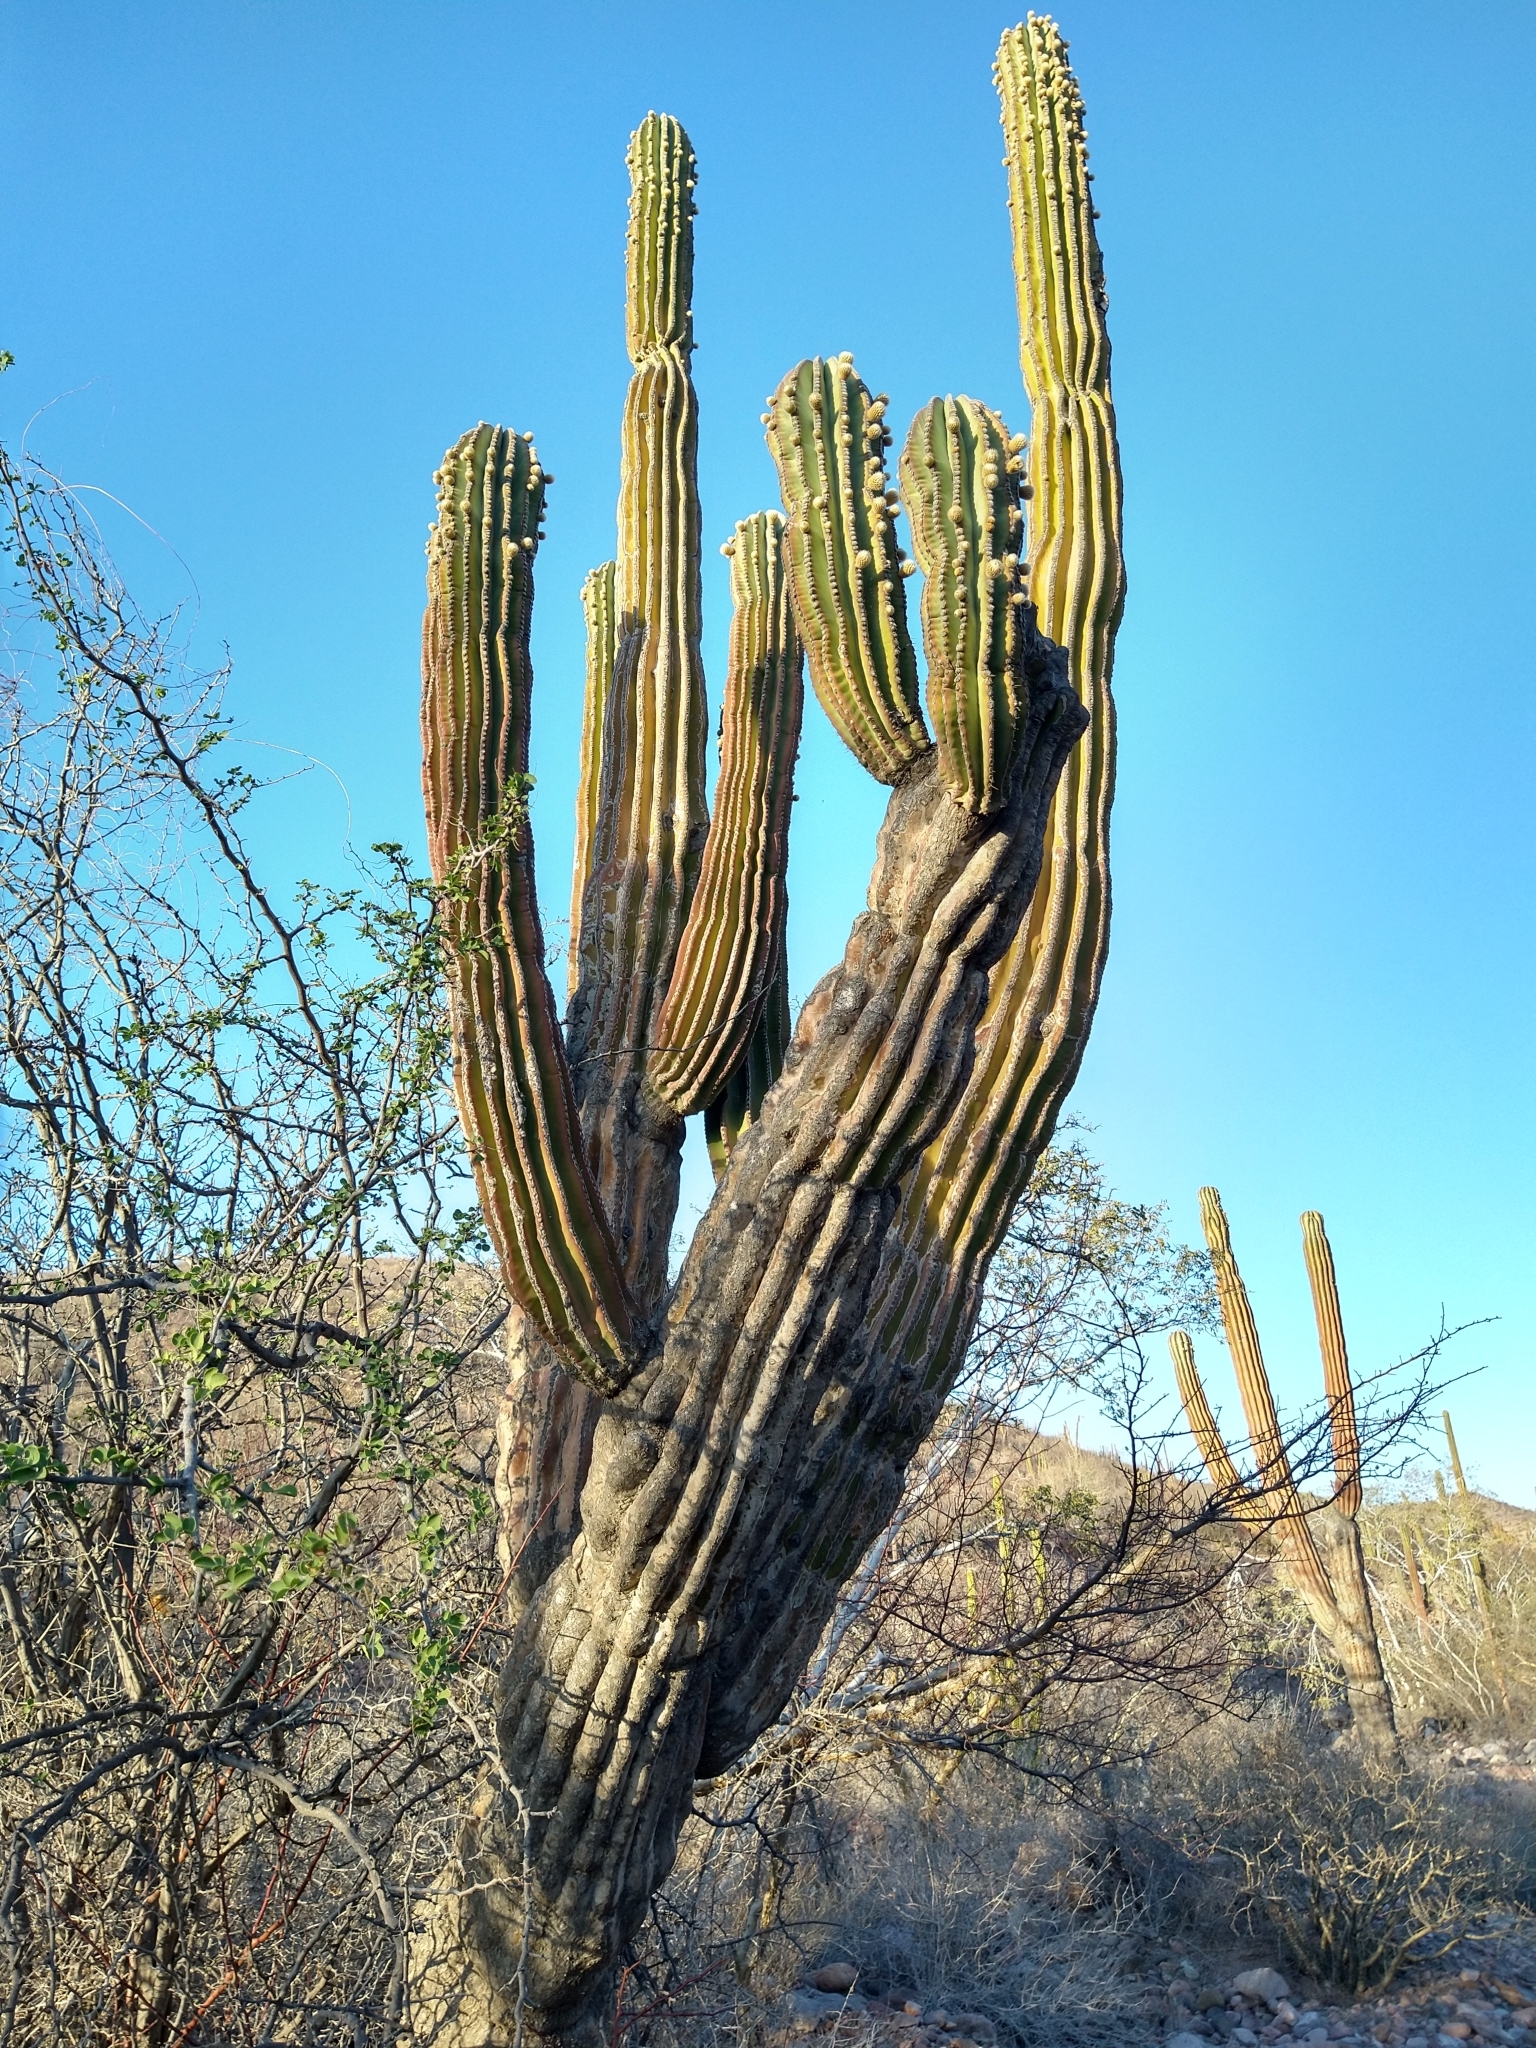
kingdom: Plantae
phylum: Tracheophyta
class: Magnoliopsida
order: Caryophyllales
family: Cactaceae
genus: Pachycereus
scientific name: Pachycereus pringlei
